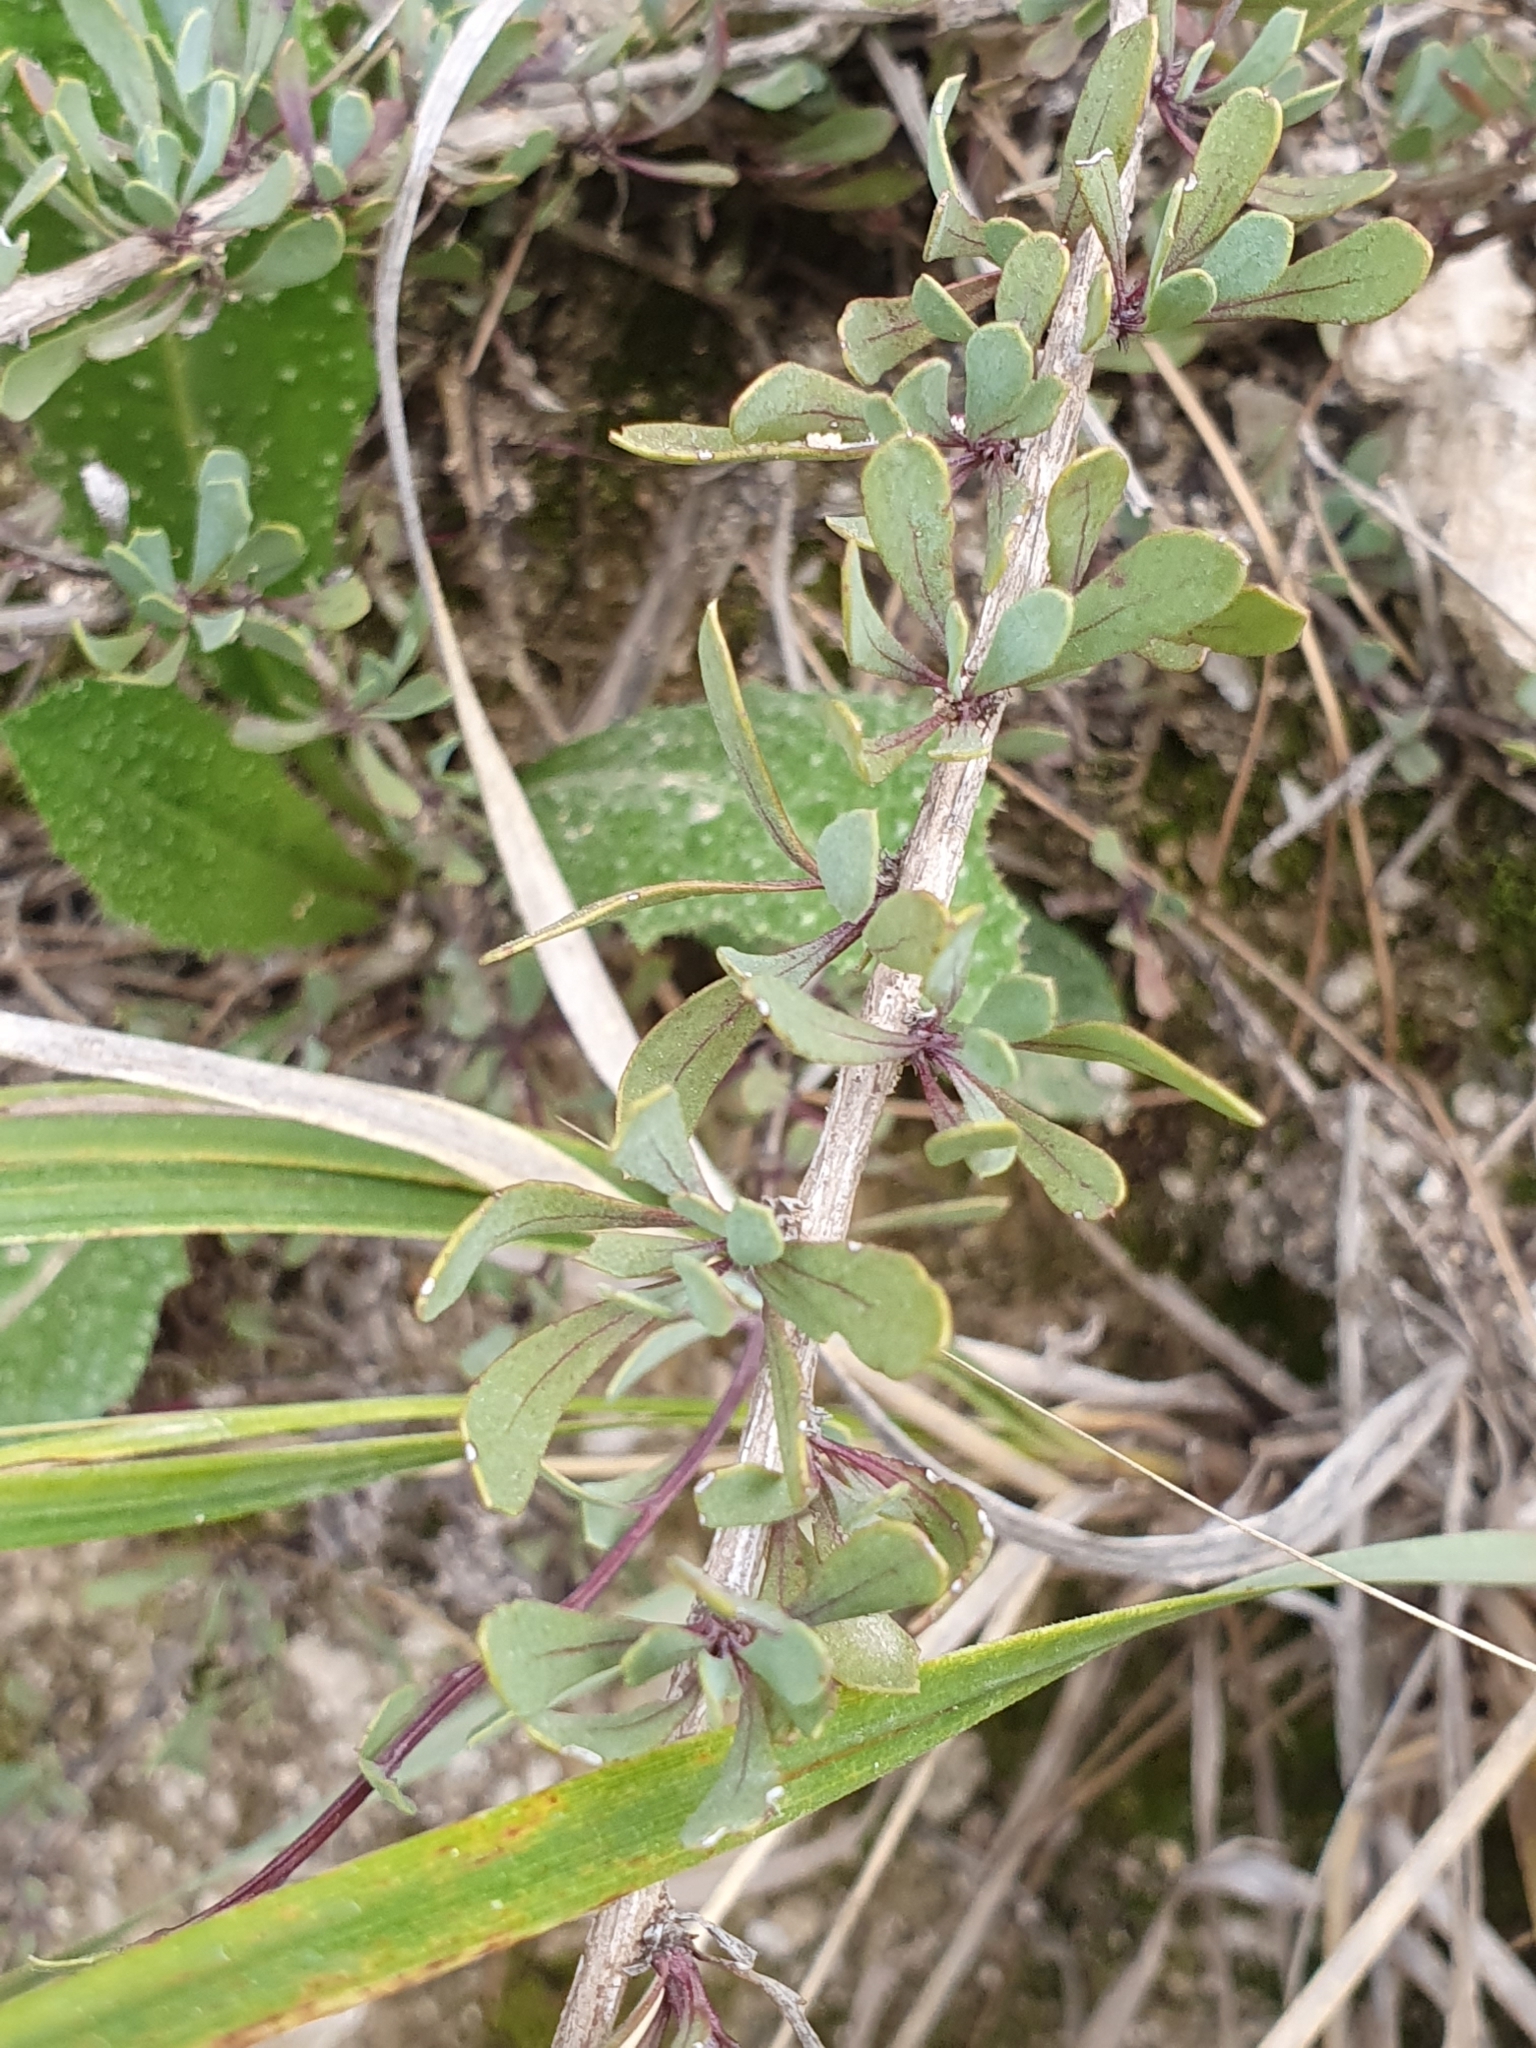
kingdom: Plantae
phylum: Tracheophyta
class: Magnoliopsida
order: Lamiales
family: Plantaginaceae
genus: Globularia
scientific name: Globularia alypum
